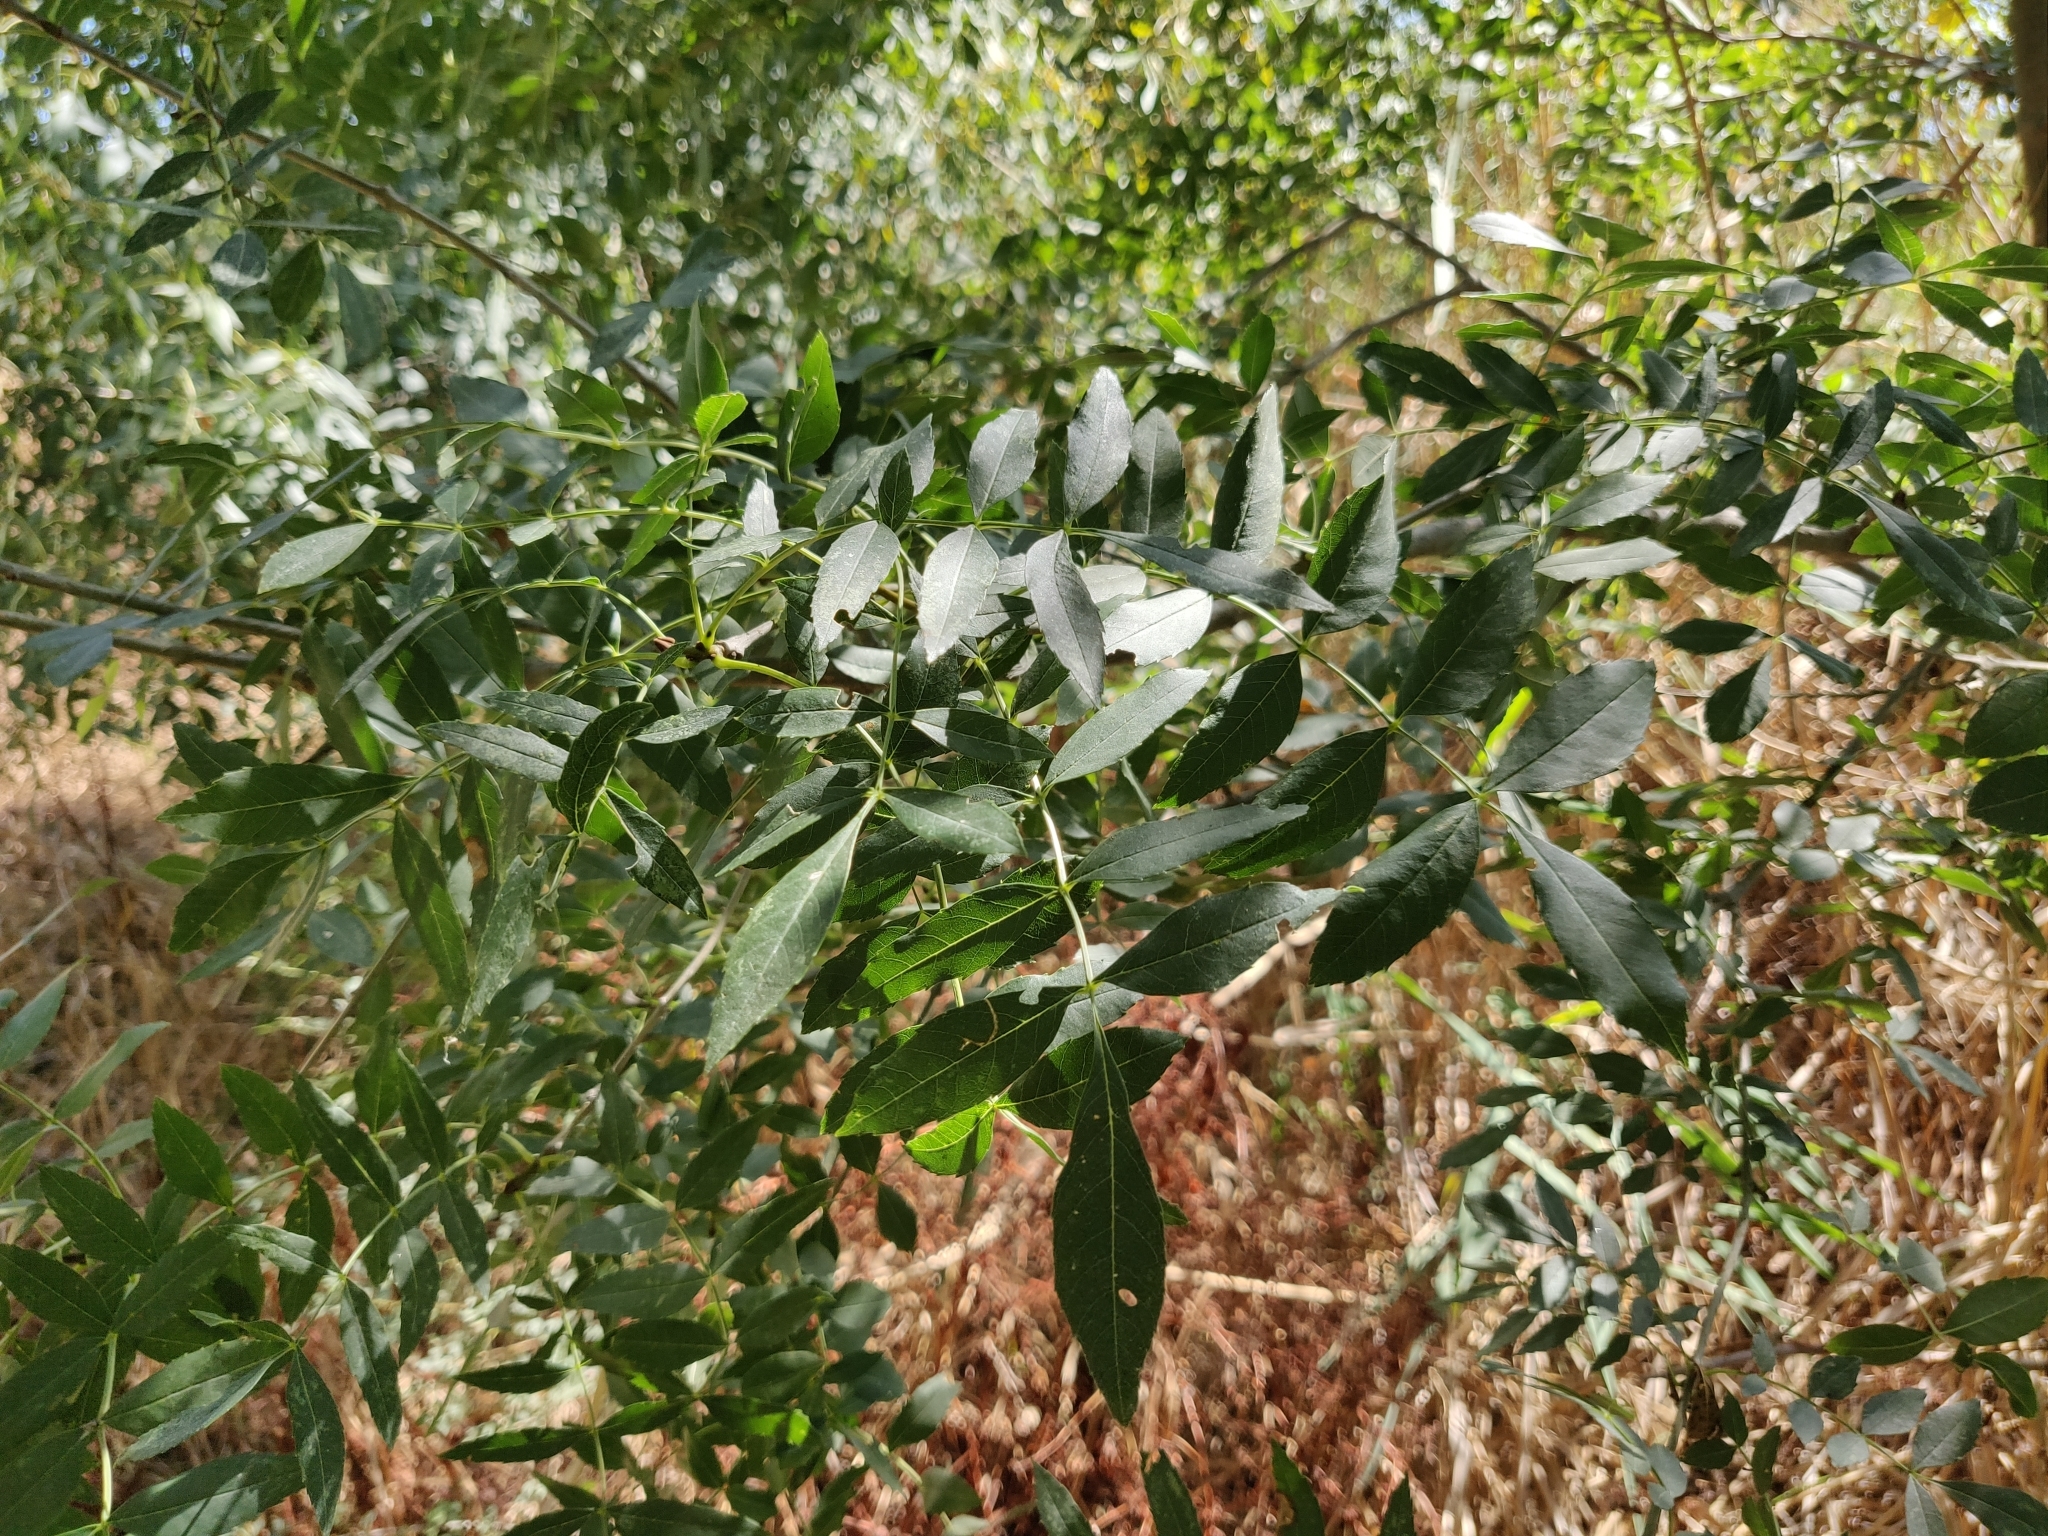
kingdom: Plantae
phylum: Tracheophyta
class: Magnoliopsida
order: Lamiales
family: Oleaceae
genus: Fraxinus
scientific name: Fraxinus angustifolia
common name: Narrow-leafed ash
